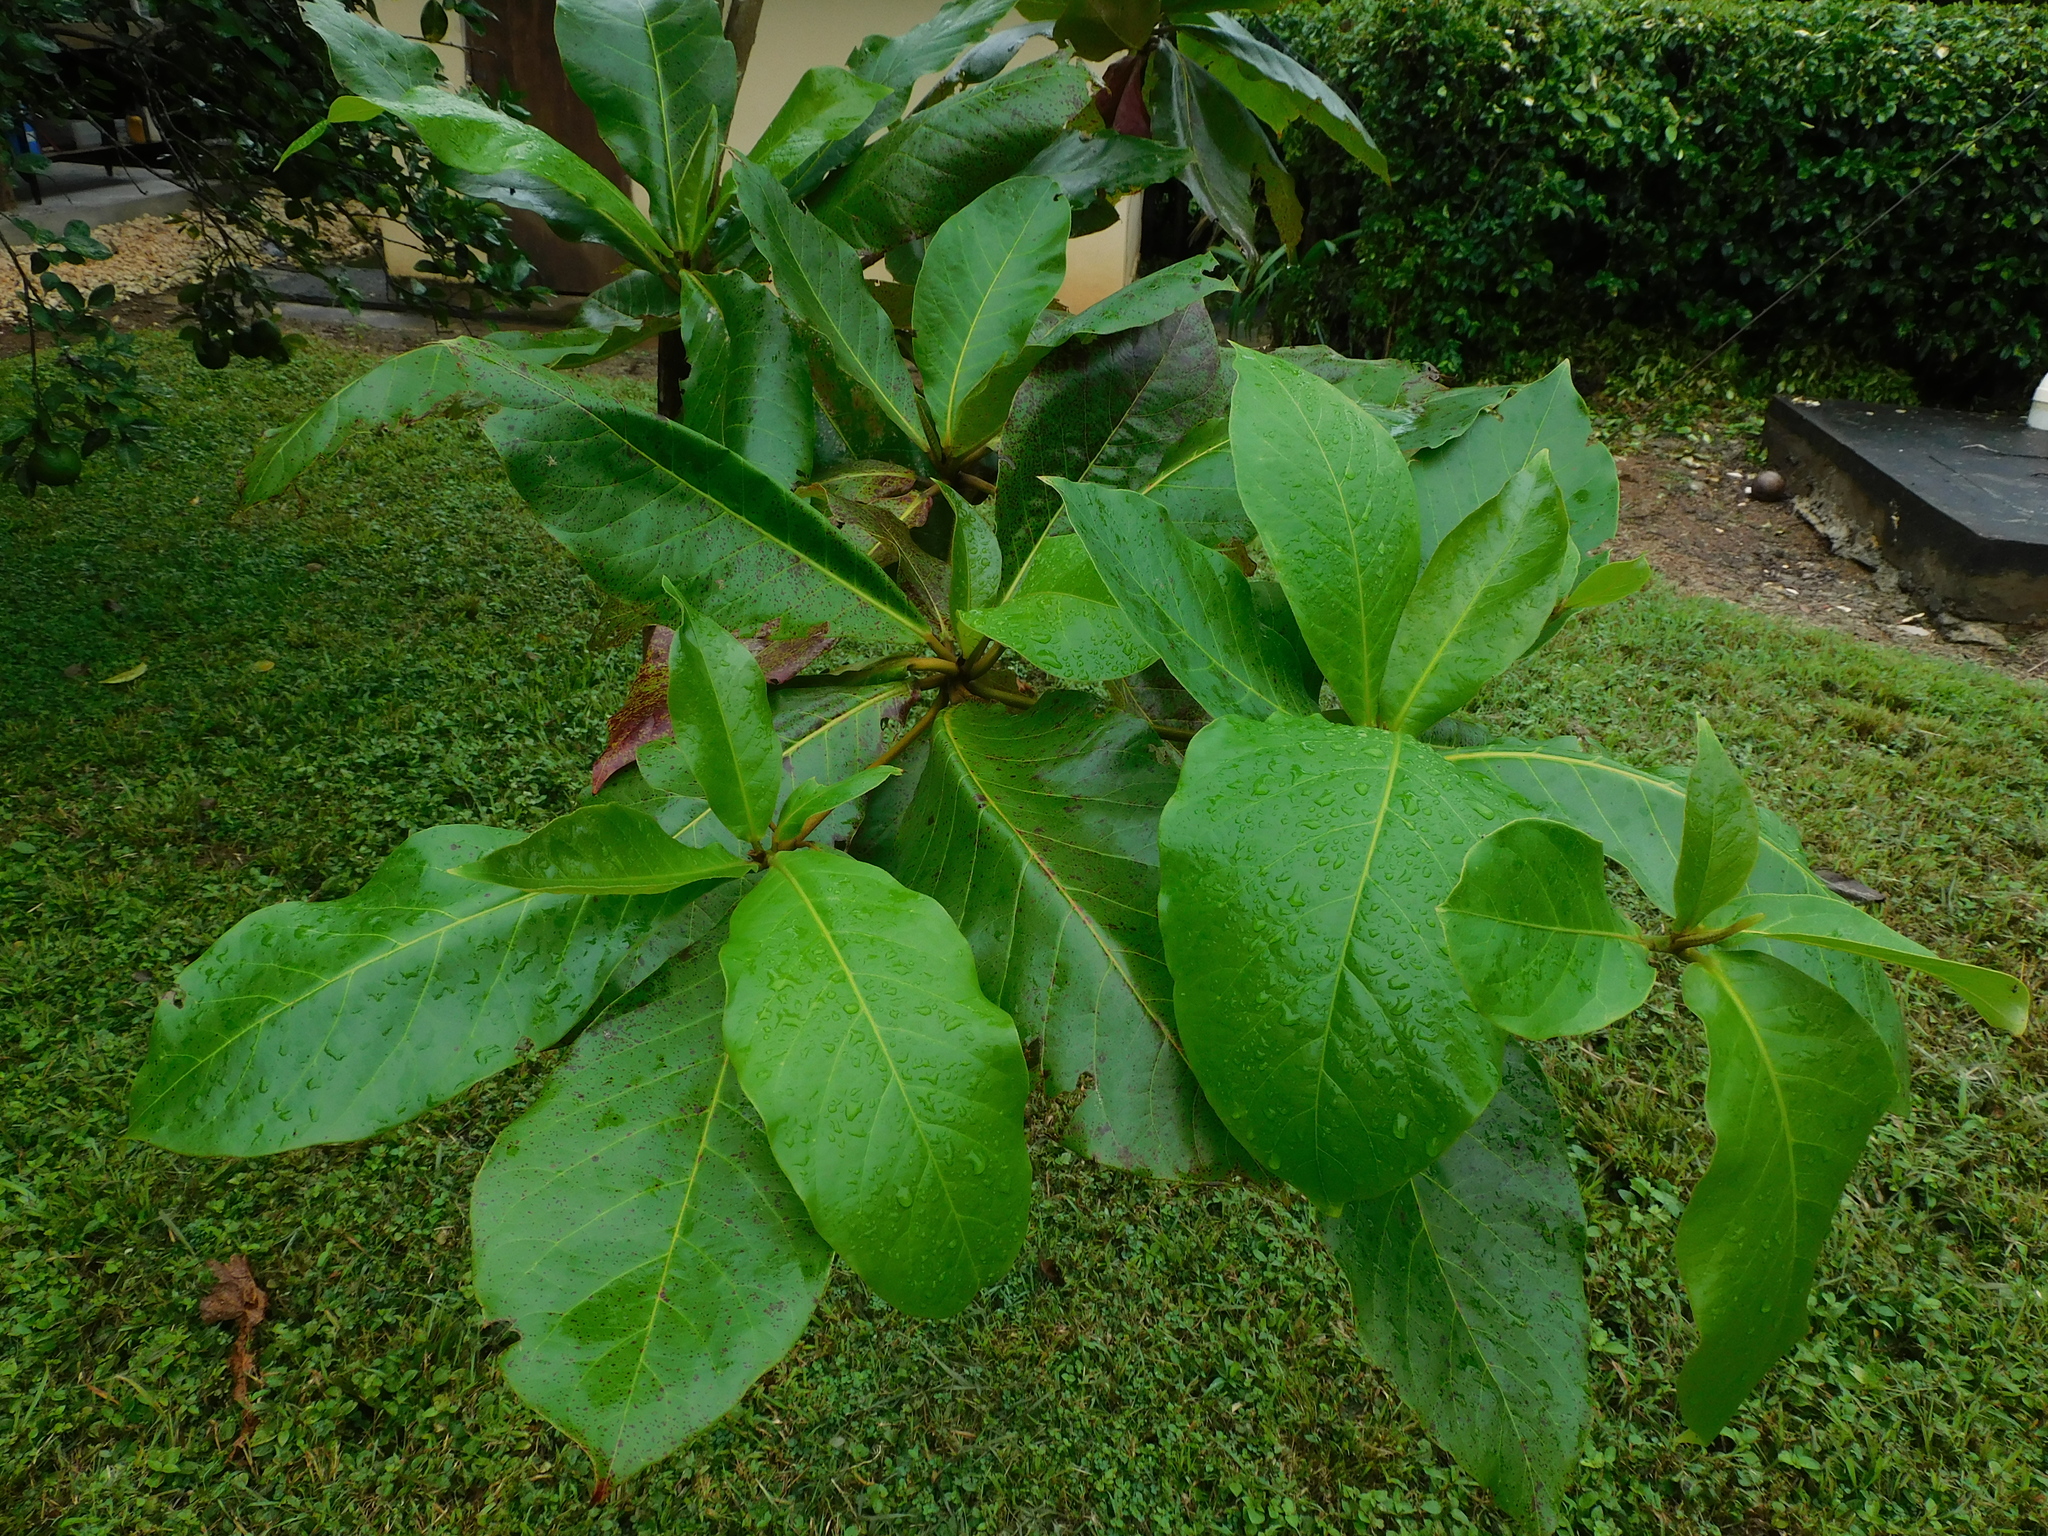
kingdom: Plantae
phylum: Tracheophyta
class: Magnoliopsida
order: Myrtales
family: Combretaceae
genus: Terminalia
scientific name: Terminalia catappa
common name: Tropical almond
